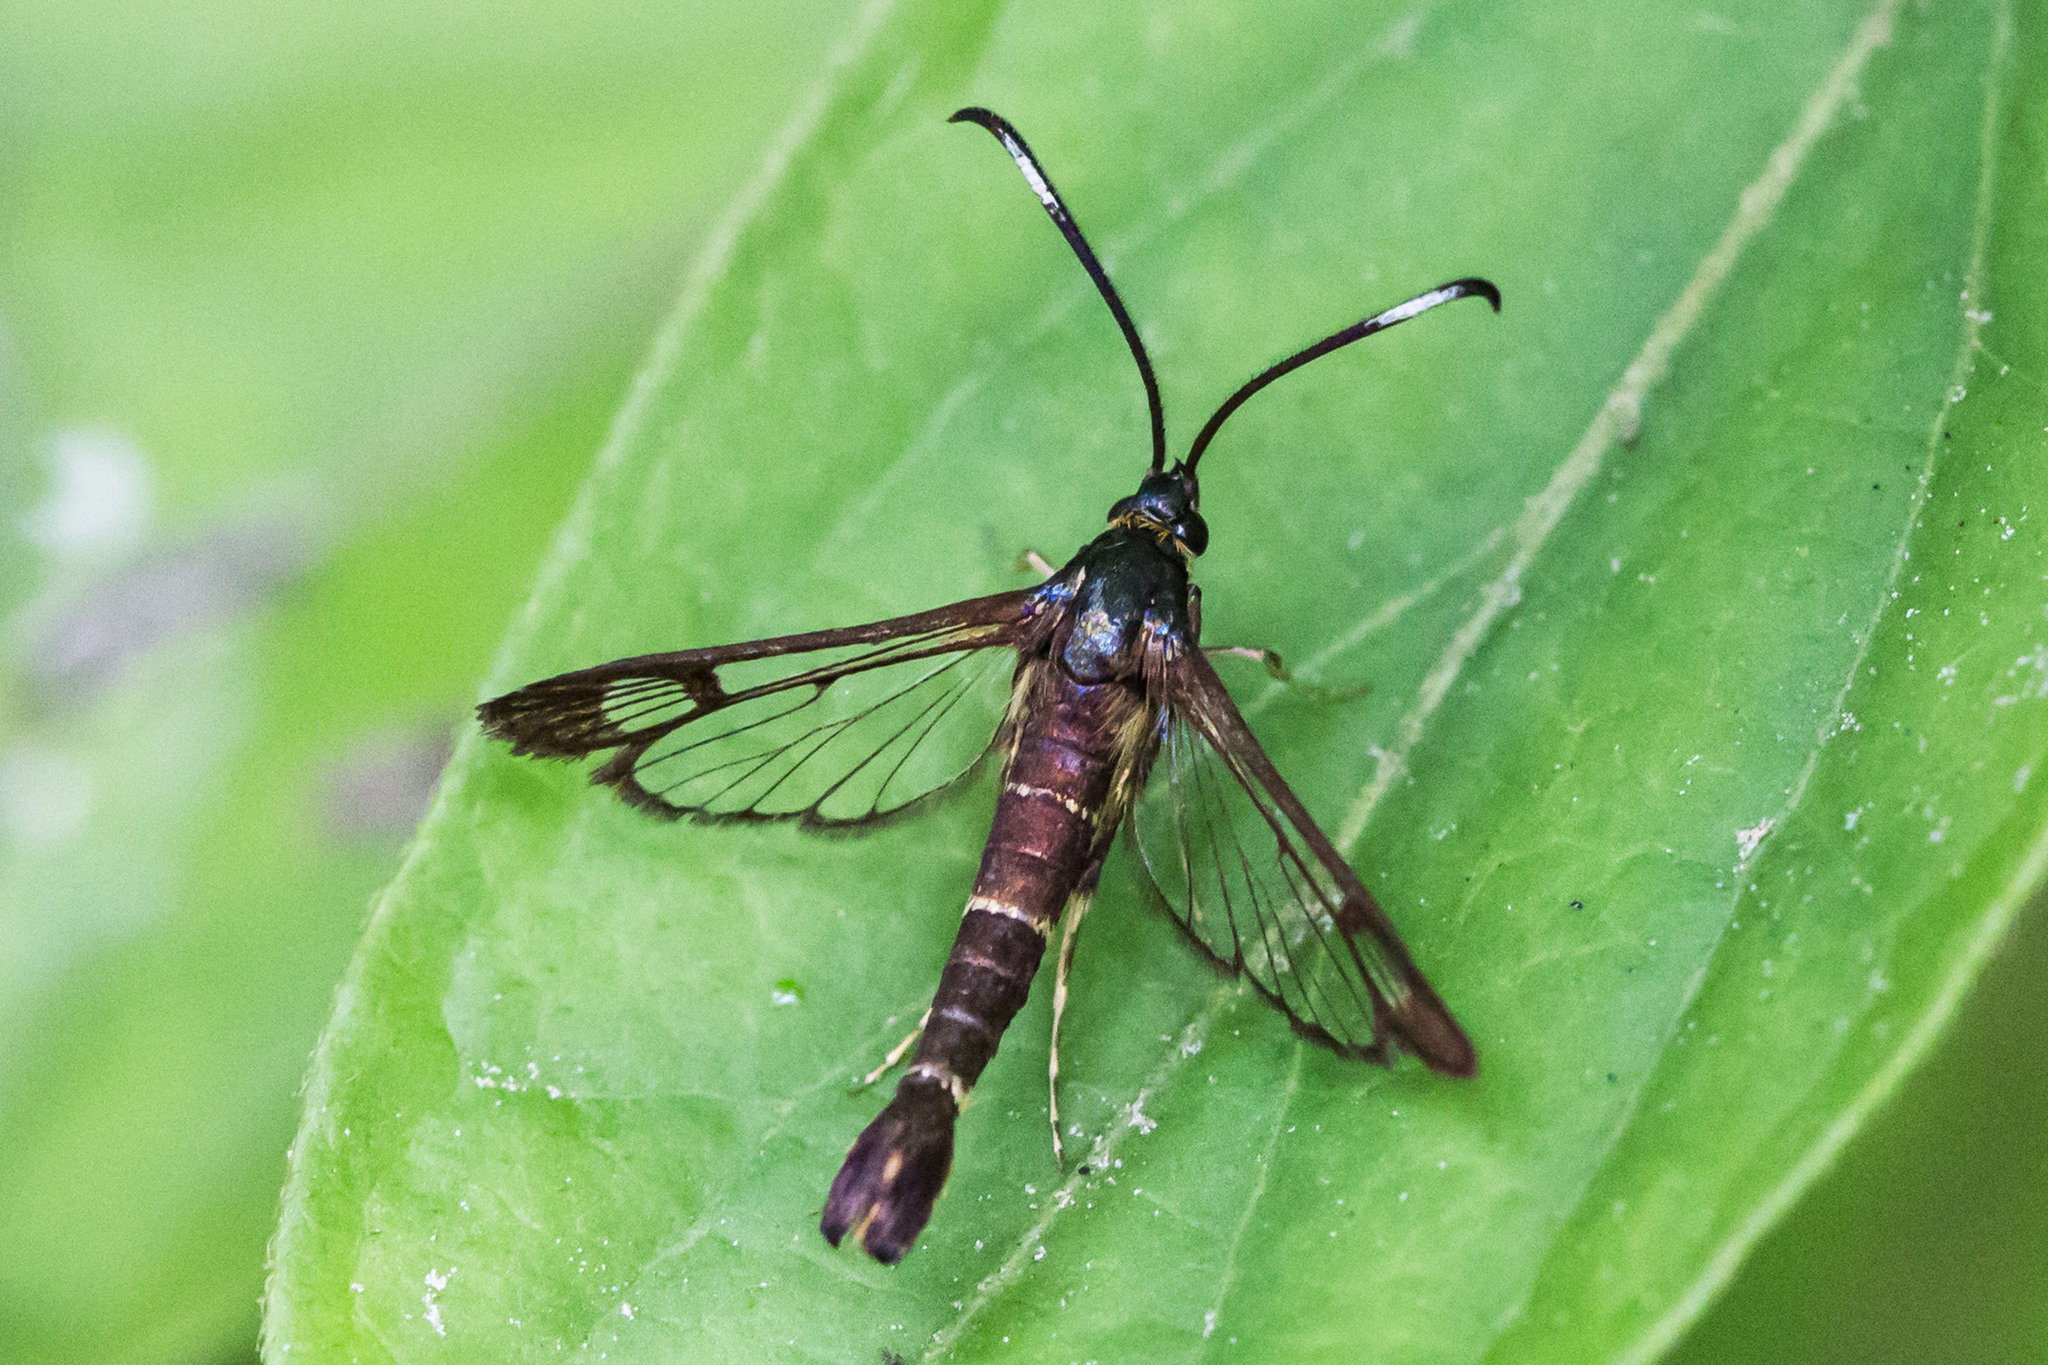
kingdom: Animalia
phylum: Arthropoda
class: Insecta
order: Lepidoptera
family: Sesiidae
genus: Carmenta
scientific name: Carmenta ithacae
